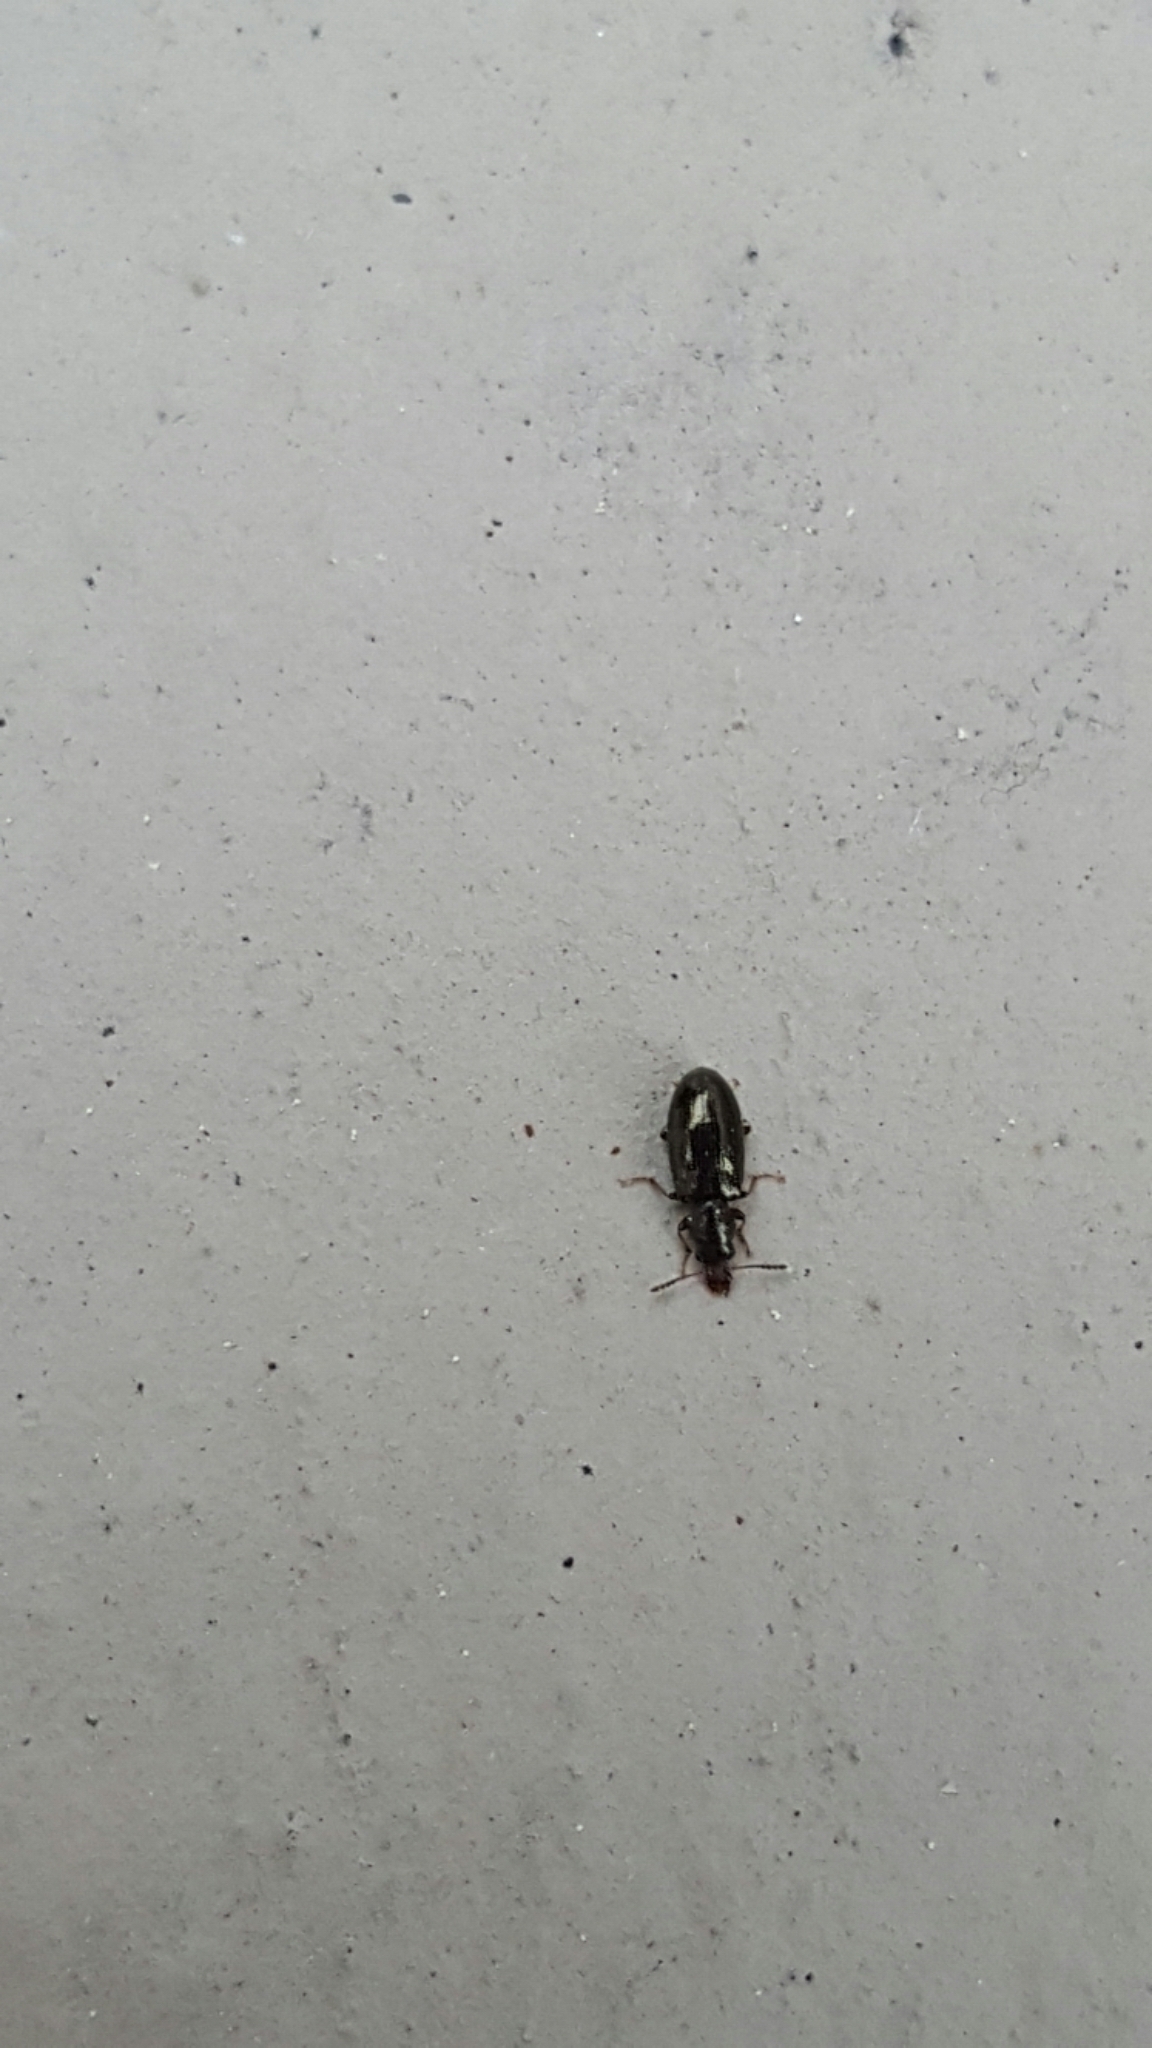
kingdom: Animalia
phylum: Arthropoda
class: Insecta
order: Coleoptera
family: Salpingidae
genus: Salpingus
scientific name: Salpingus planirostris
